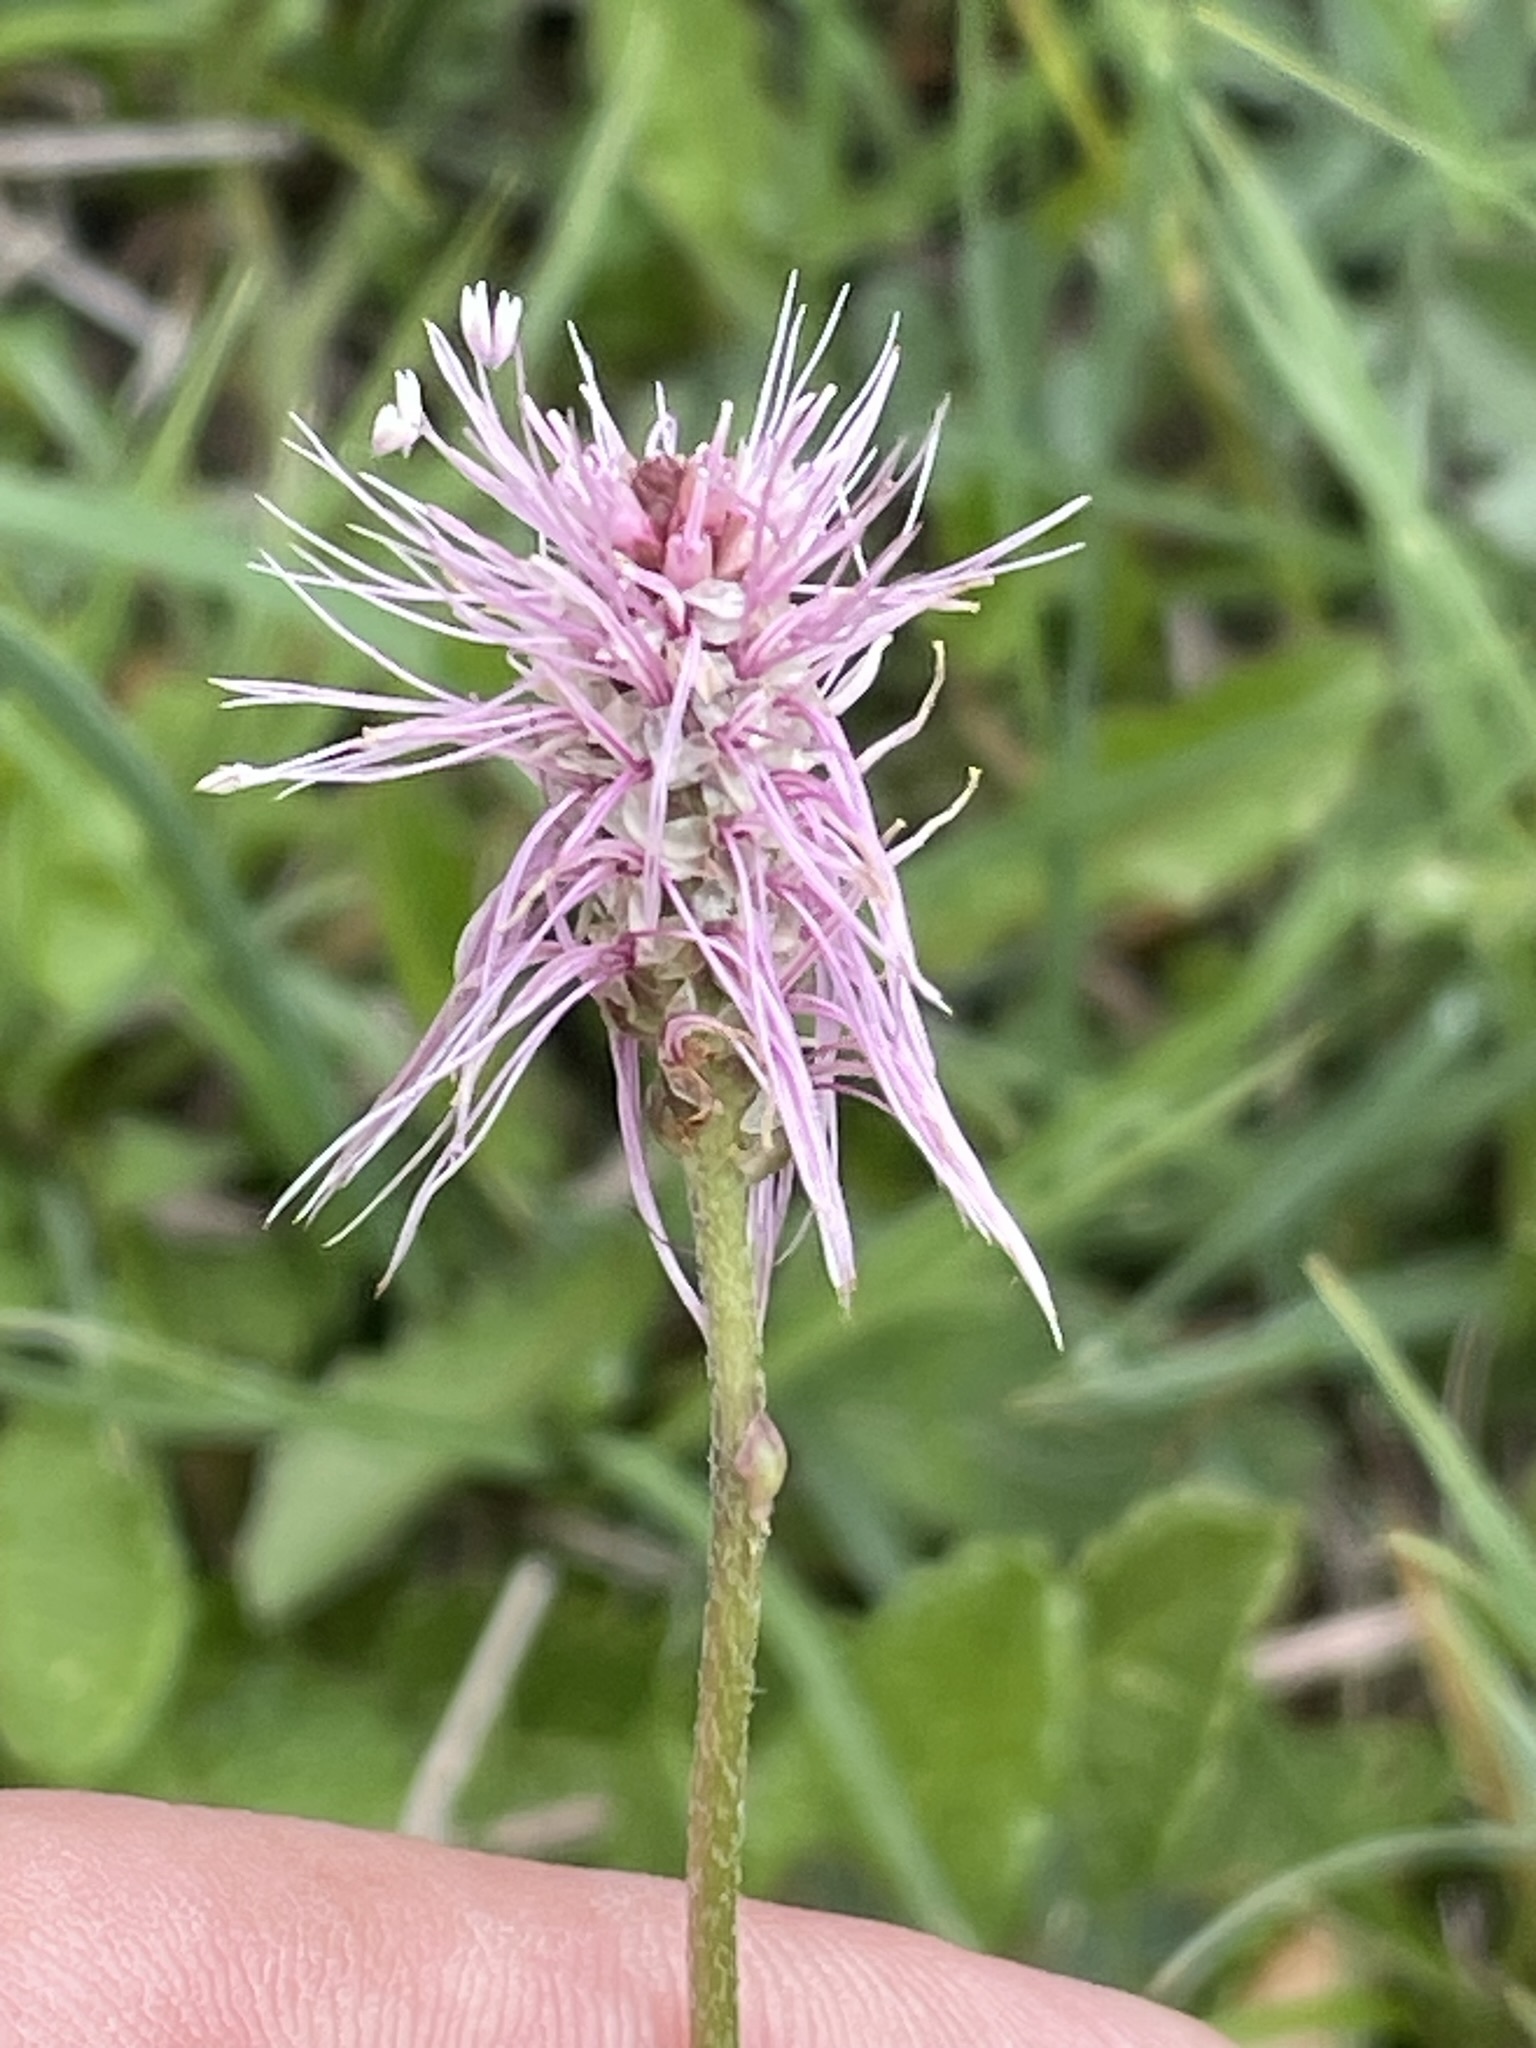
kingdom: Plantae
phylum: Tracheophyta
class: Magnoliopsida
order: Lamiales
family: Plantaginaceae
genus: Plantago
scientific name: Plantago media
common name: Hoary plantain
